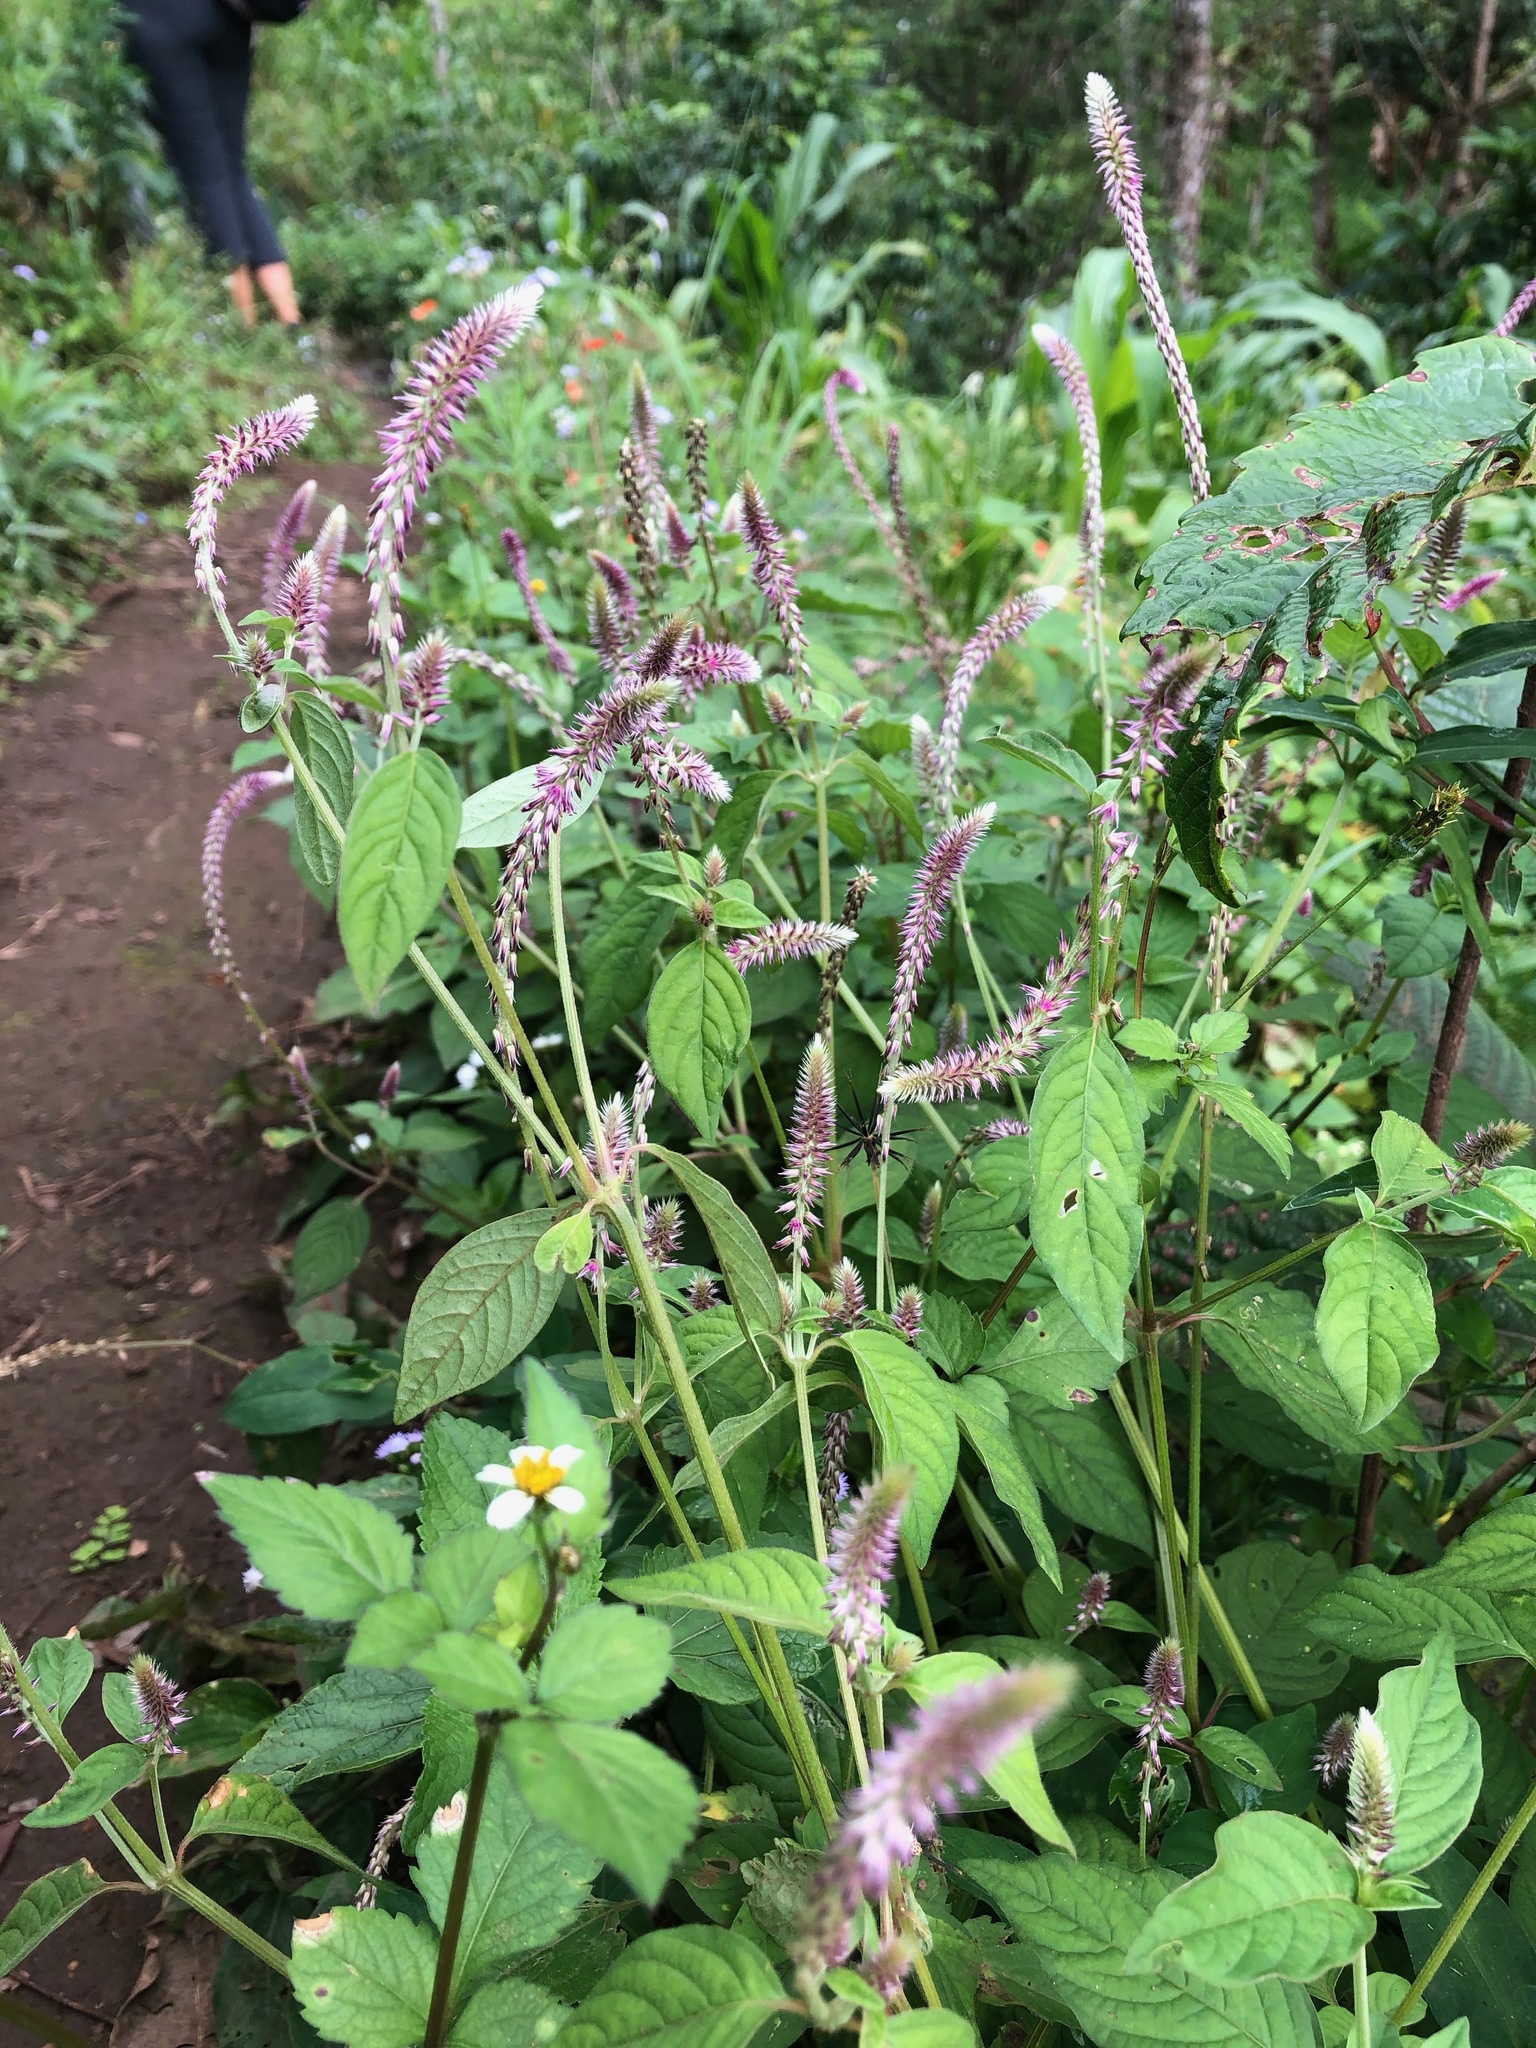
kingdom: Plantae
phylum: Tracheophyta
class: Magnoliopsida
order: Caryophyllales
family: Amaranthaceae
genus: Achyranthes
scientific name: Achyranthes aspera
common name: Devil's horsewhip
